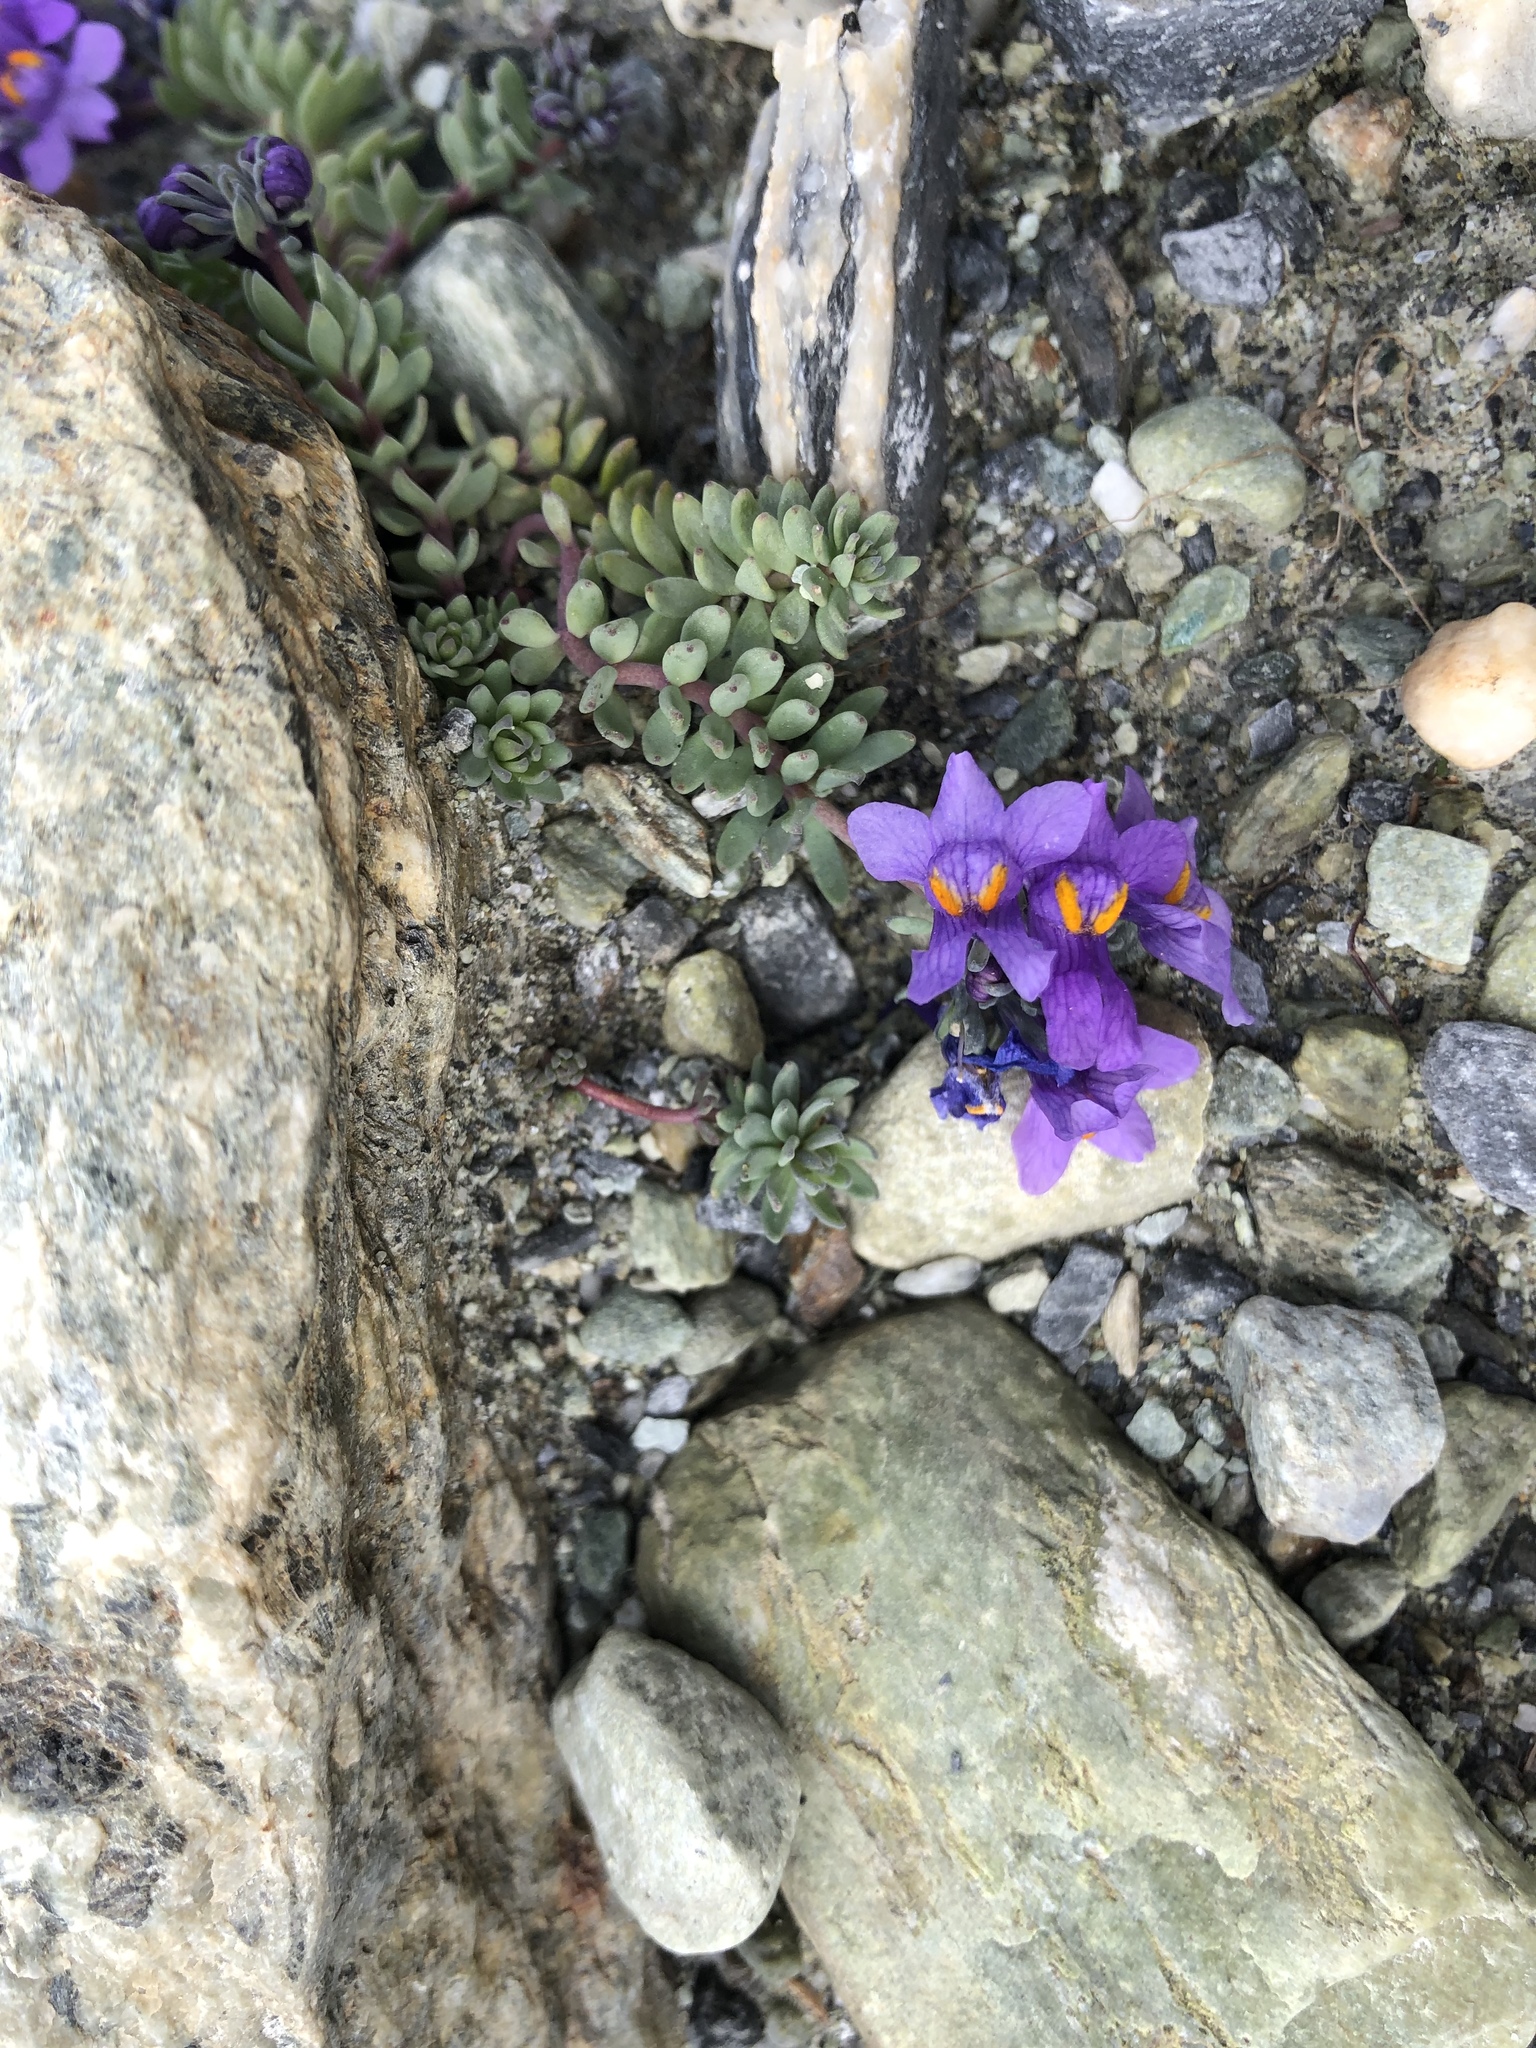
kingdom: Plantae
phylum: Tracheophyta
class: Magnoliopsida
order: Lamiales
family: Plantaginaceae
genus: Linaria
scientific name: Linaria alpina
